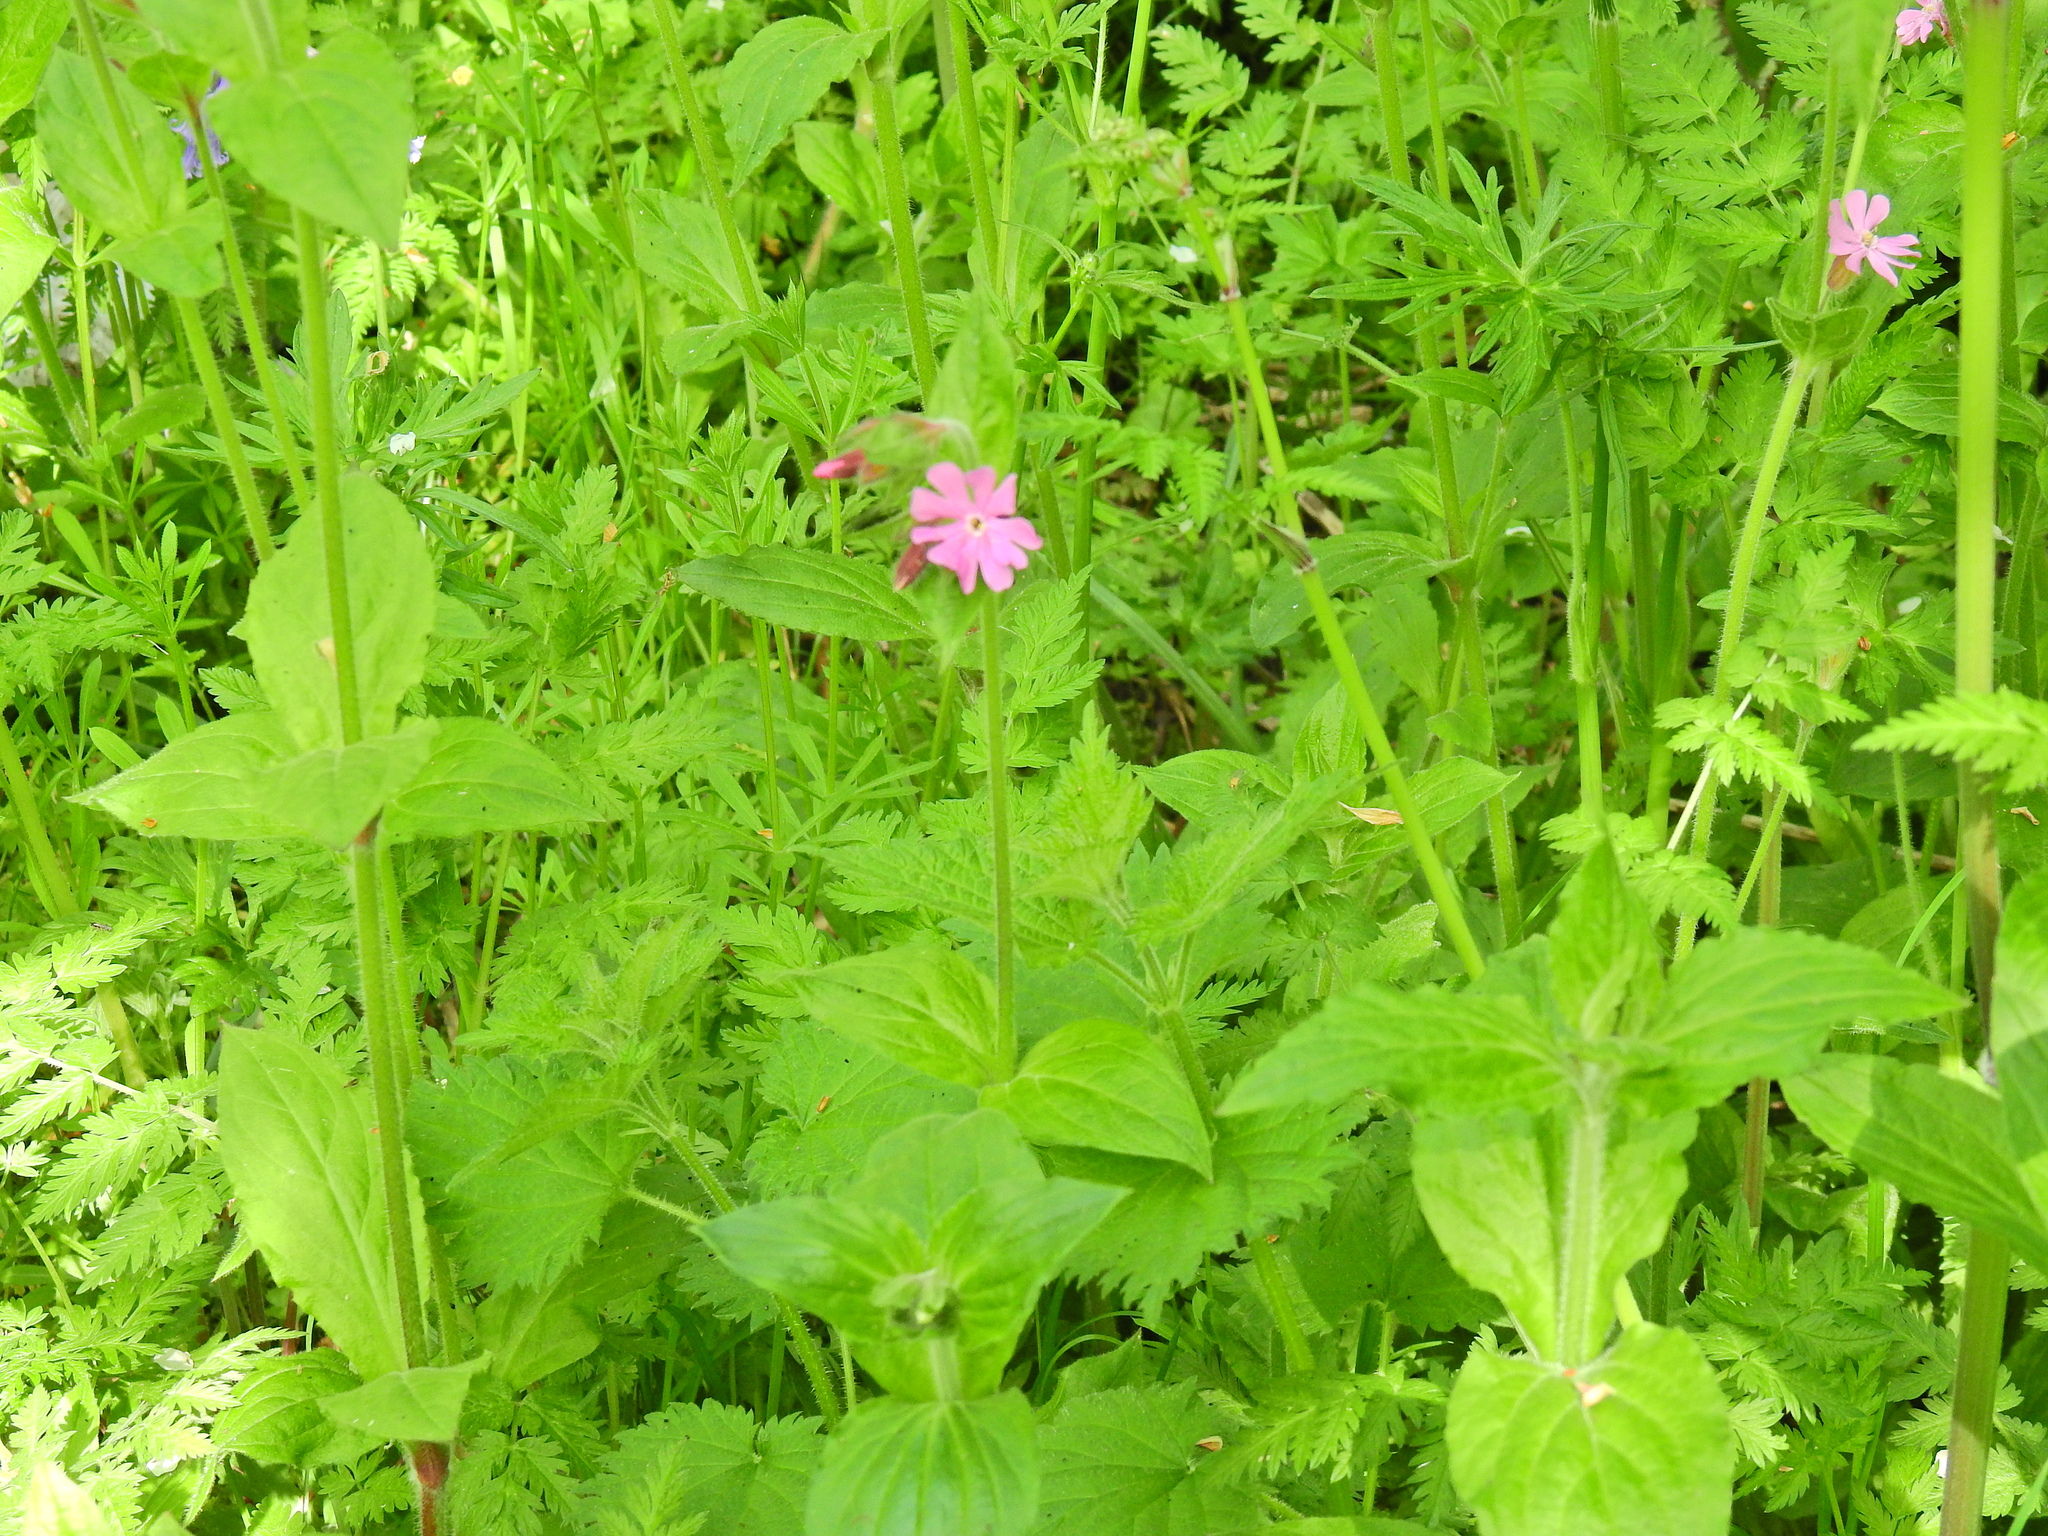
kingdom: Plantae
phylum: Tracheophyta
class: Magnoliopsida
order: Caryophyllales
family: Caryophyllaceae
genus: Silene
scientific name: Silene dioica
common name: Red campion
